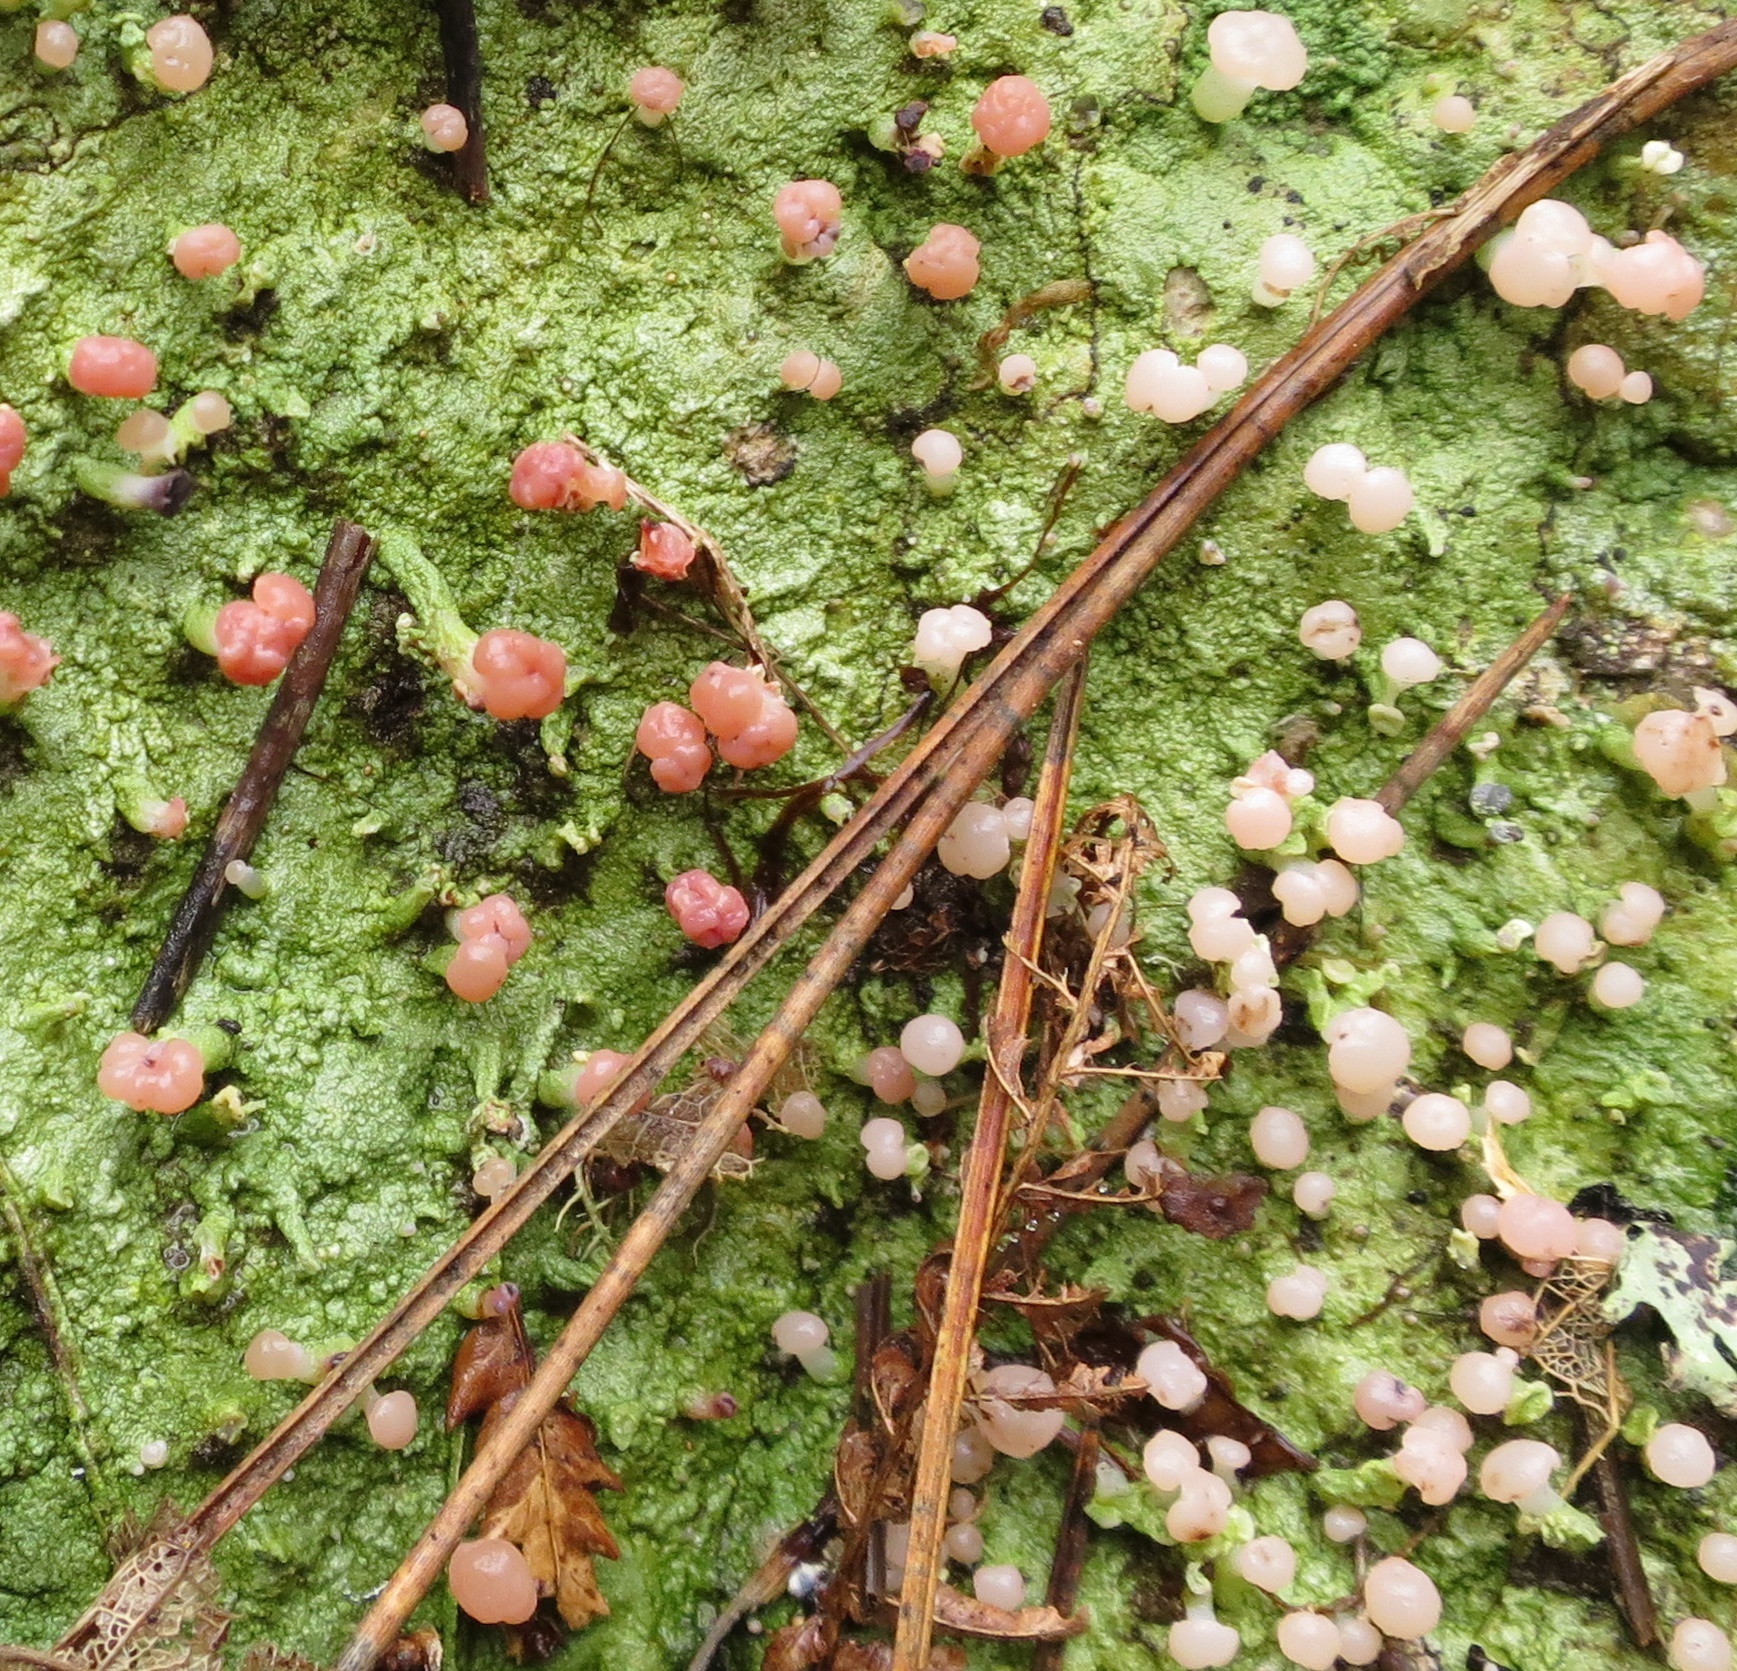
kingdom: Fungi
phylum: Ascomycota
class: Lecanoromycetes
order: Baeomycetales
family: Baeomycetaceae
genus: Baeomyces
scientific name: Baeomyces heteromorphus
